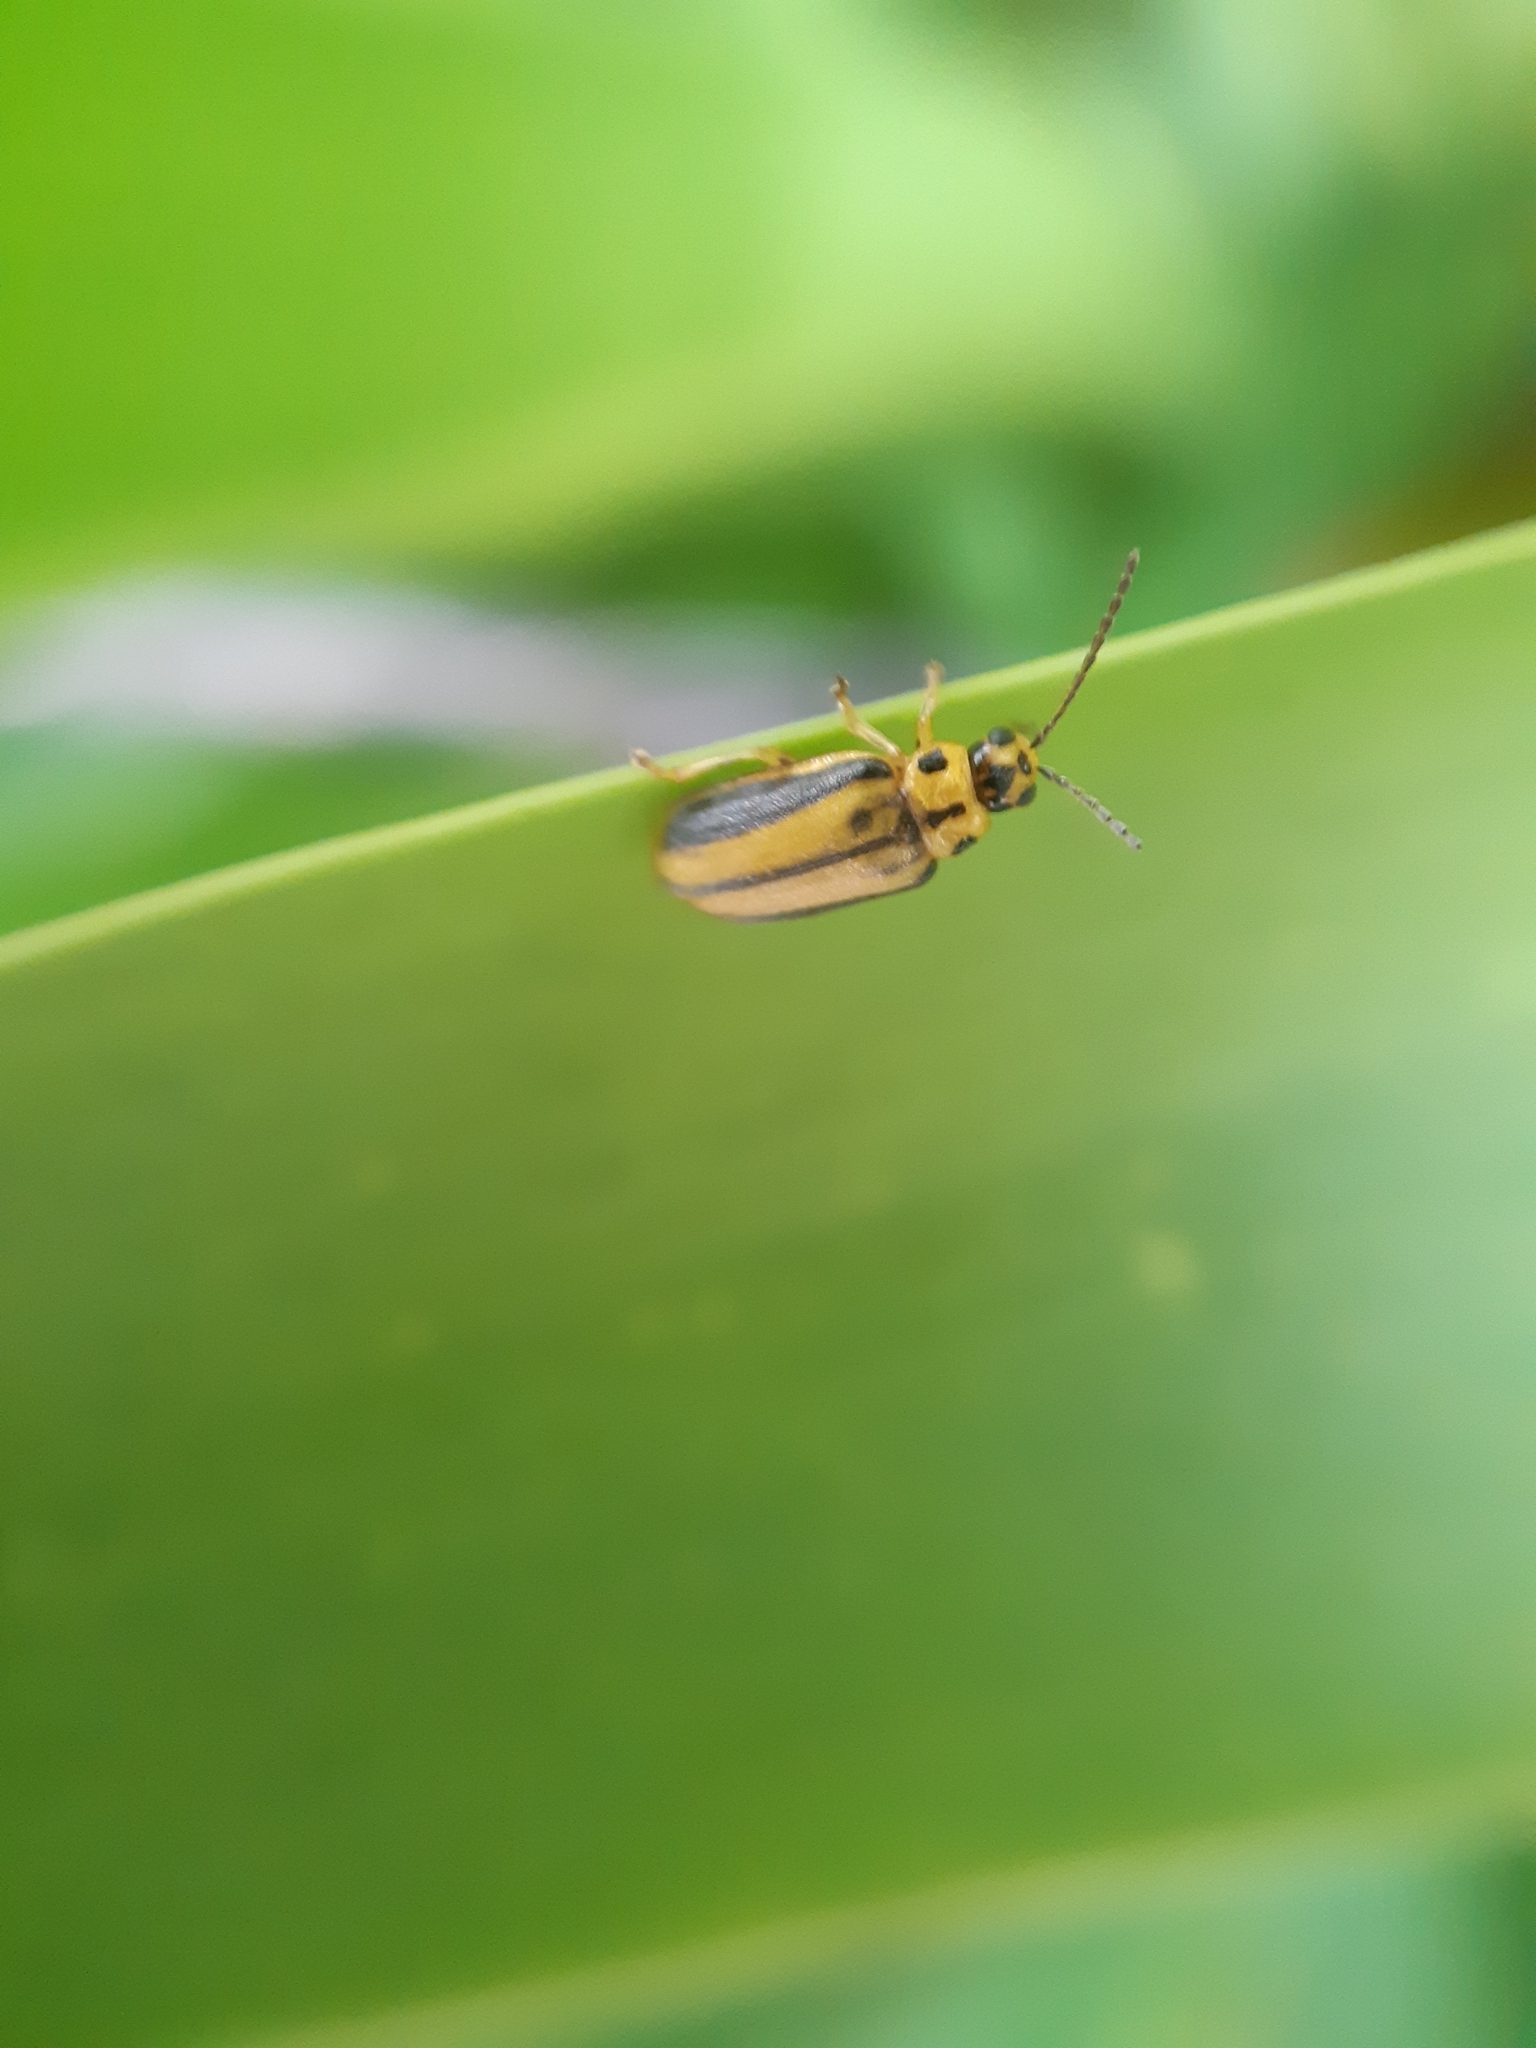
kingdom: Animalia
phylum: Arthropoda
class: Insecta
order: Coleoptera
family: Chrysomelidae
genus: Xanthogaleruca
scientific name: Xanthogaleruca luteola
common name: Elm leaf beetle
